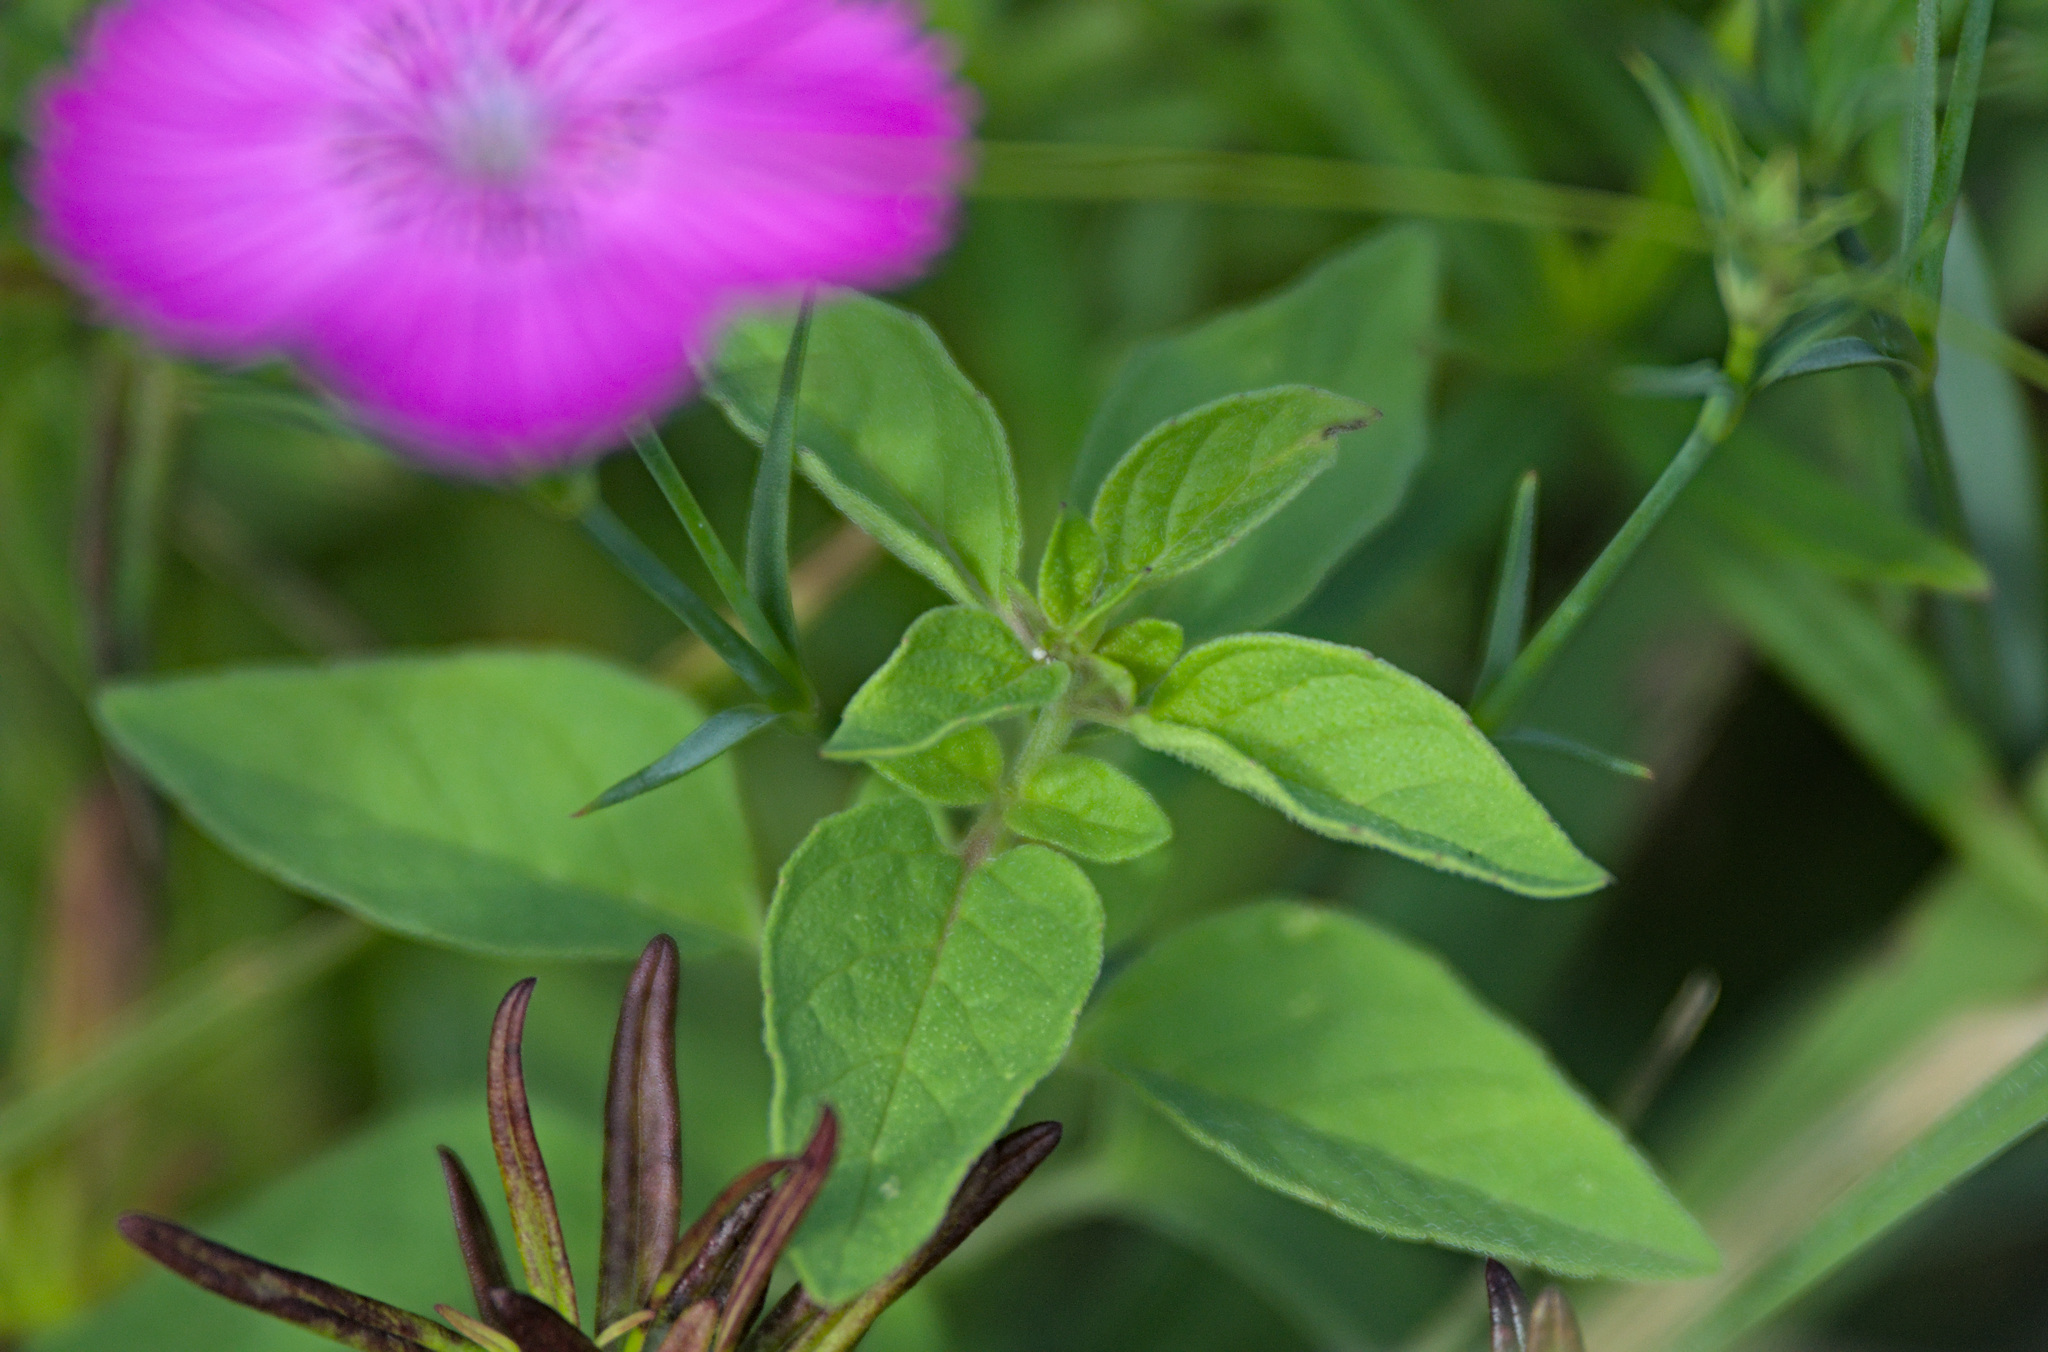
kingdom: Plantae
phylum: Tracheophyta
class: Magnoliopsida
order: Lamiales
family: Lamiaceae
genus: Origanum
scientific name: Origanum vulgare
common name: Wild marjoram
